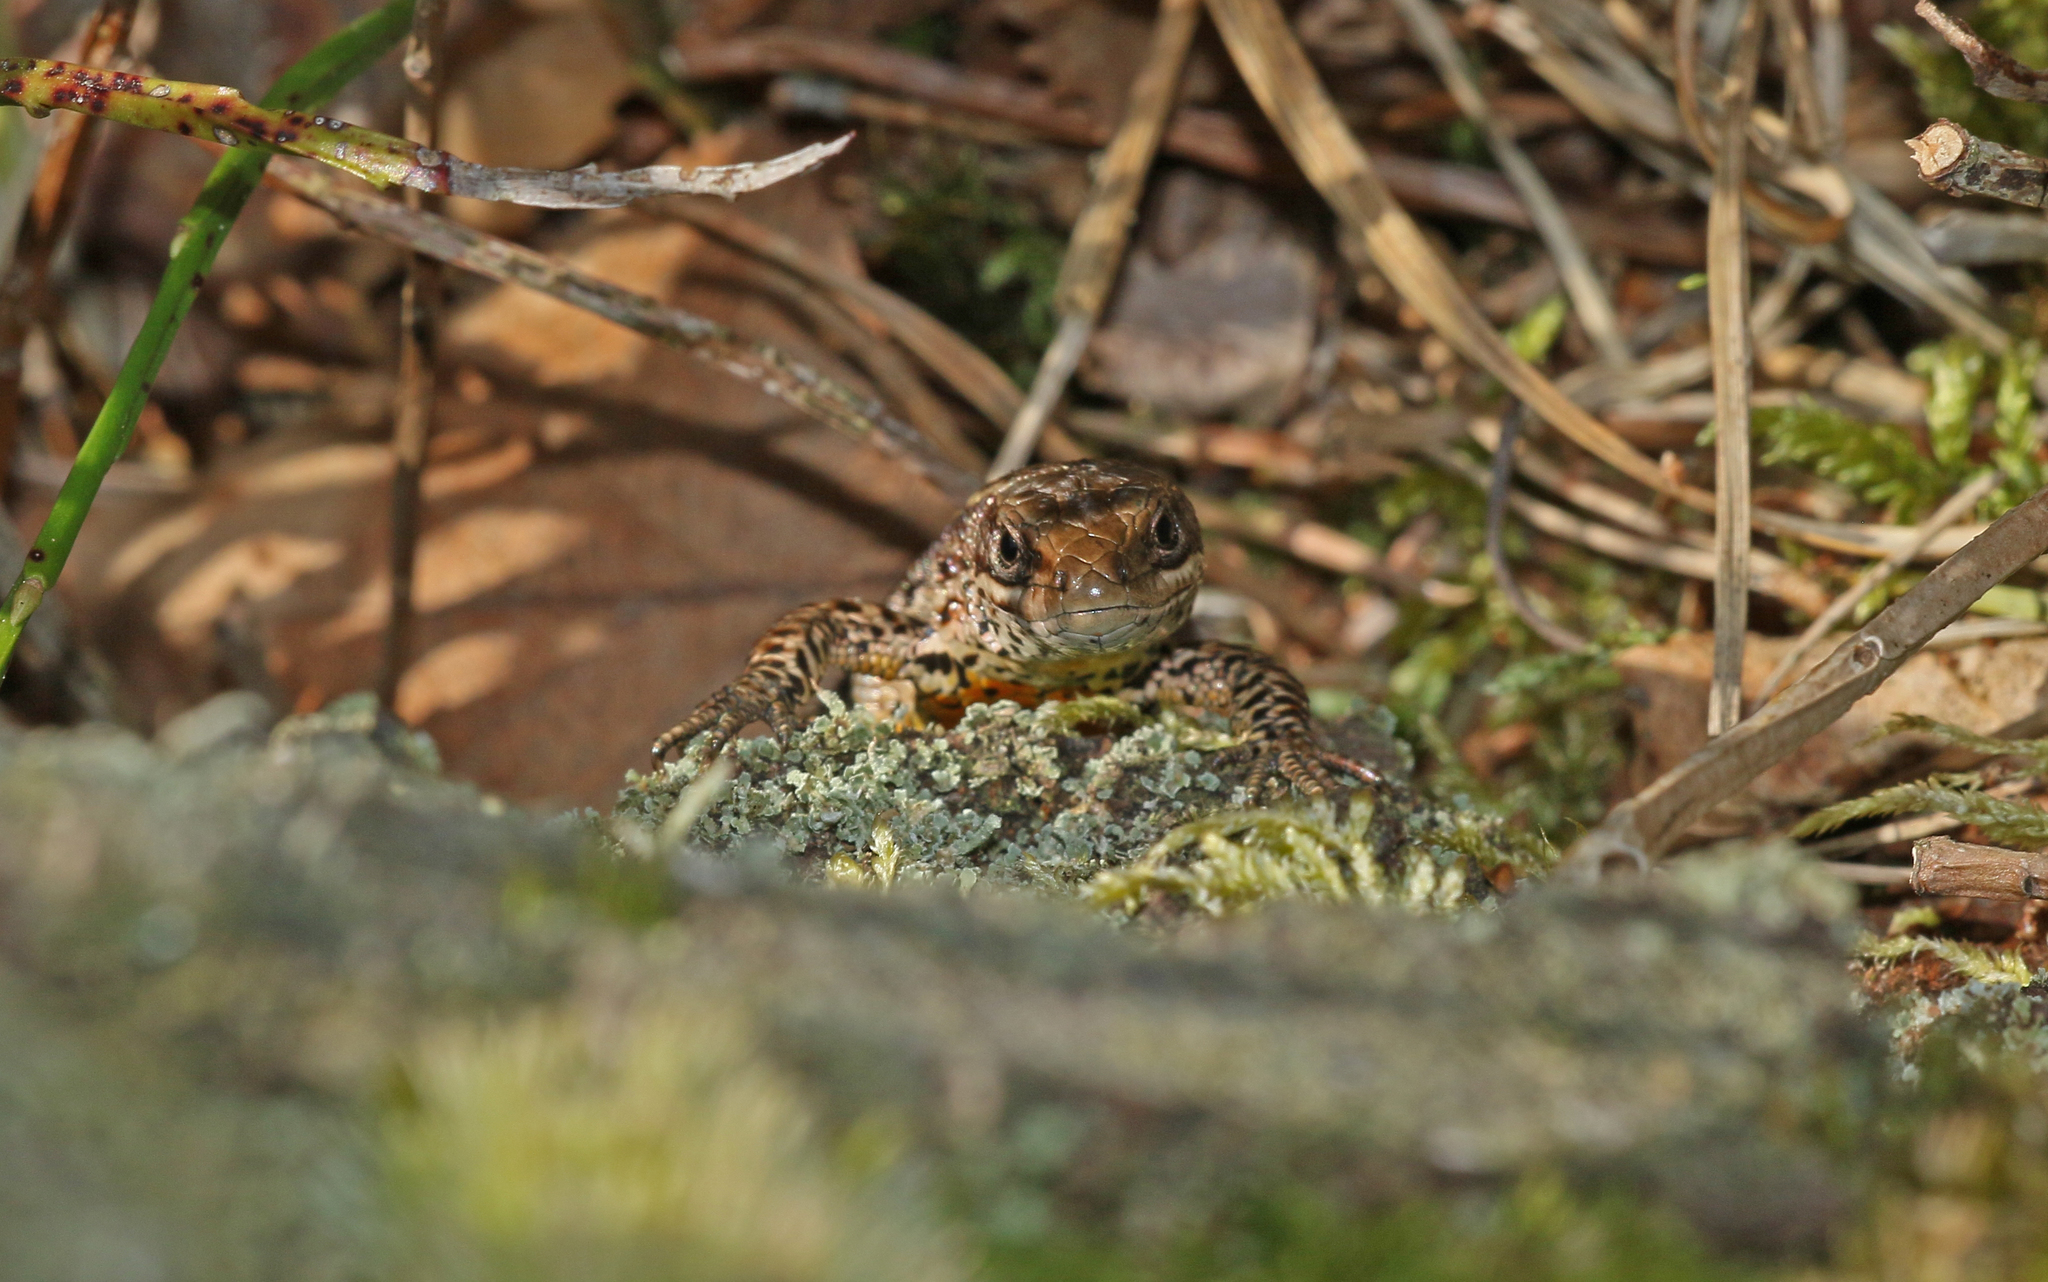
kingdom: Animalia
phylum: Chordata
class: Squamata
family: Lacertidae
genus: Zootoca
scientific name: Zootoca vivipara
